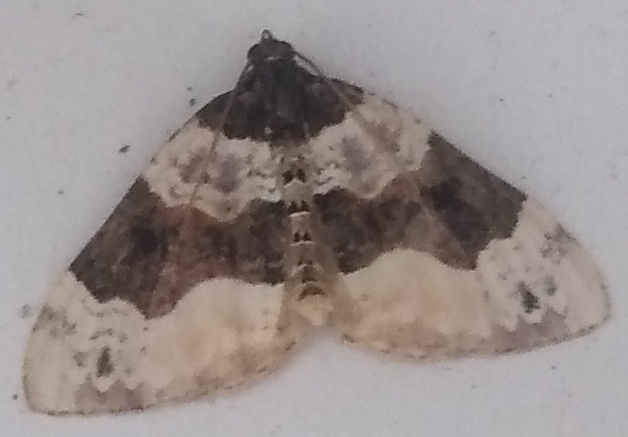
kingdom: Animalia
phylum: Arthropoda
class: Insecta
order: Lepidoptera
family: Geometridae
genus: Cosmorhoe
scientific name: Cosmorhoe ocellata
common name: Purple bar
